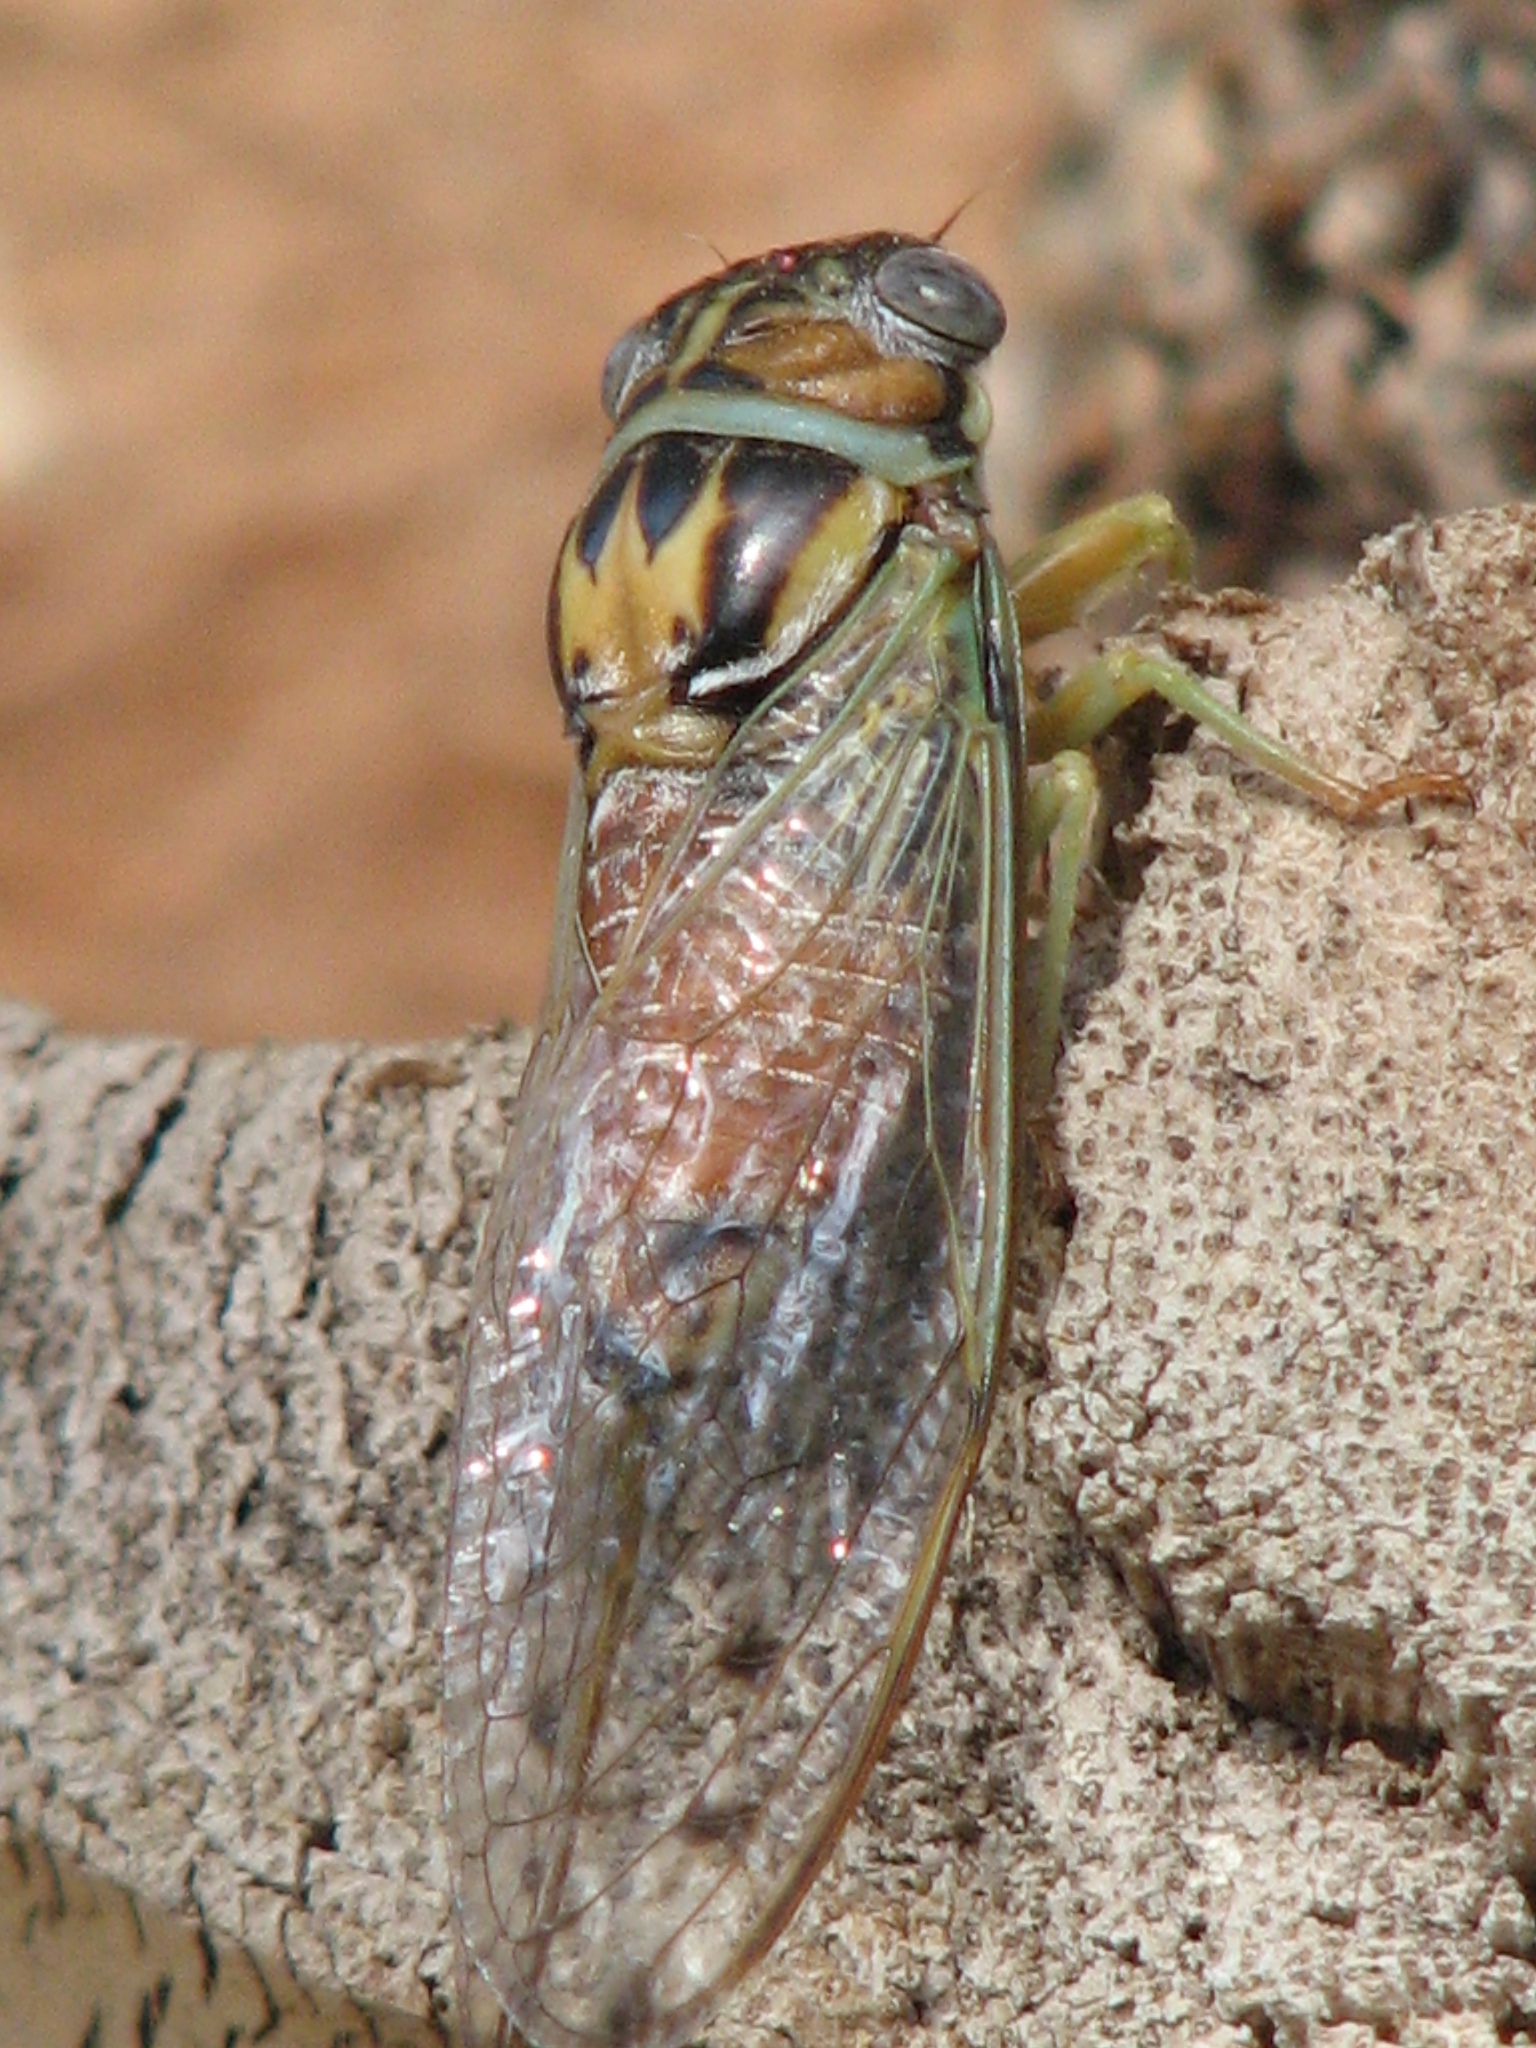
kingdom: Animalia
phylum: Arthropoda
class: Insecta
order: Hemiptera
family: Cicadidae
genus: Diceroprocta
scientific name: Diceroprocta delicata
